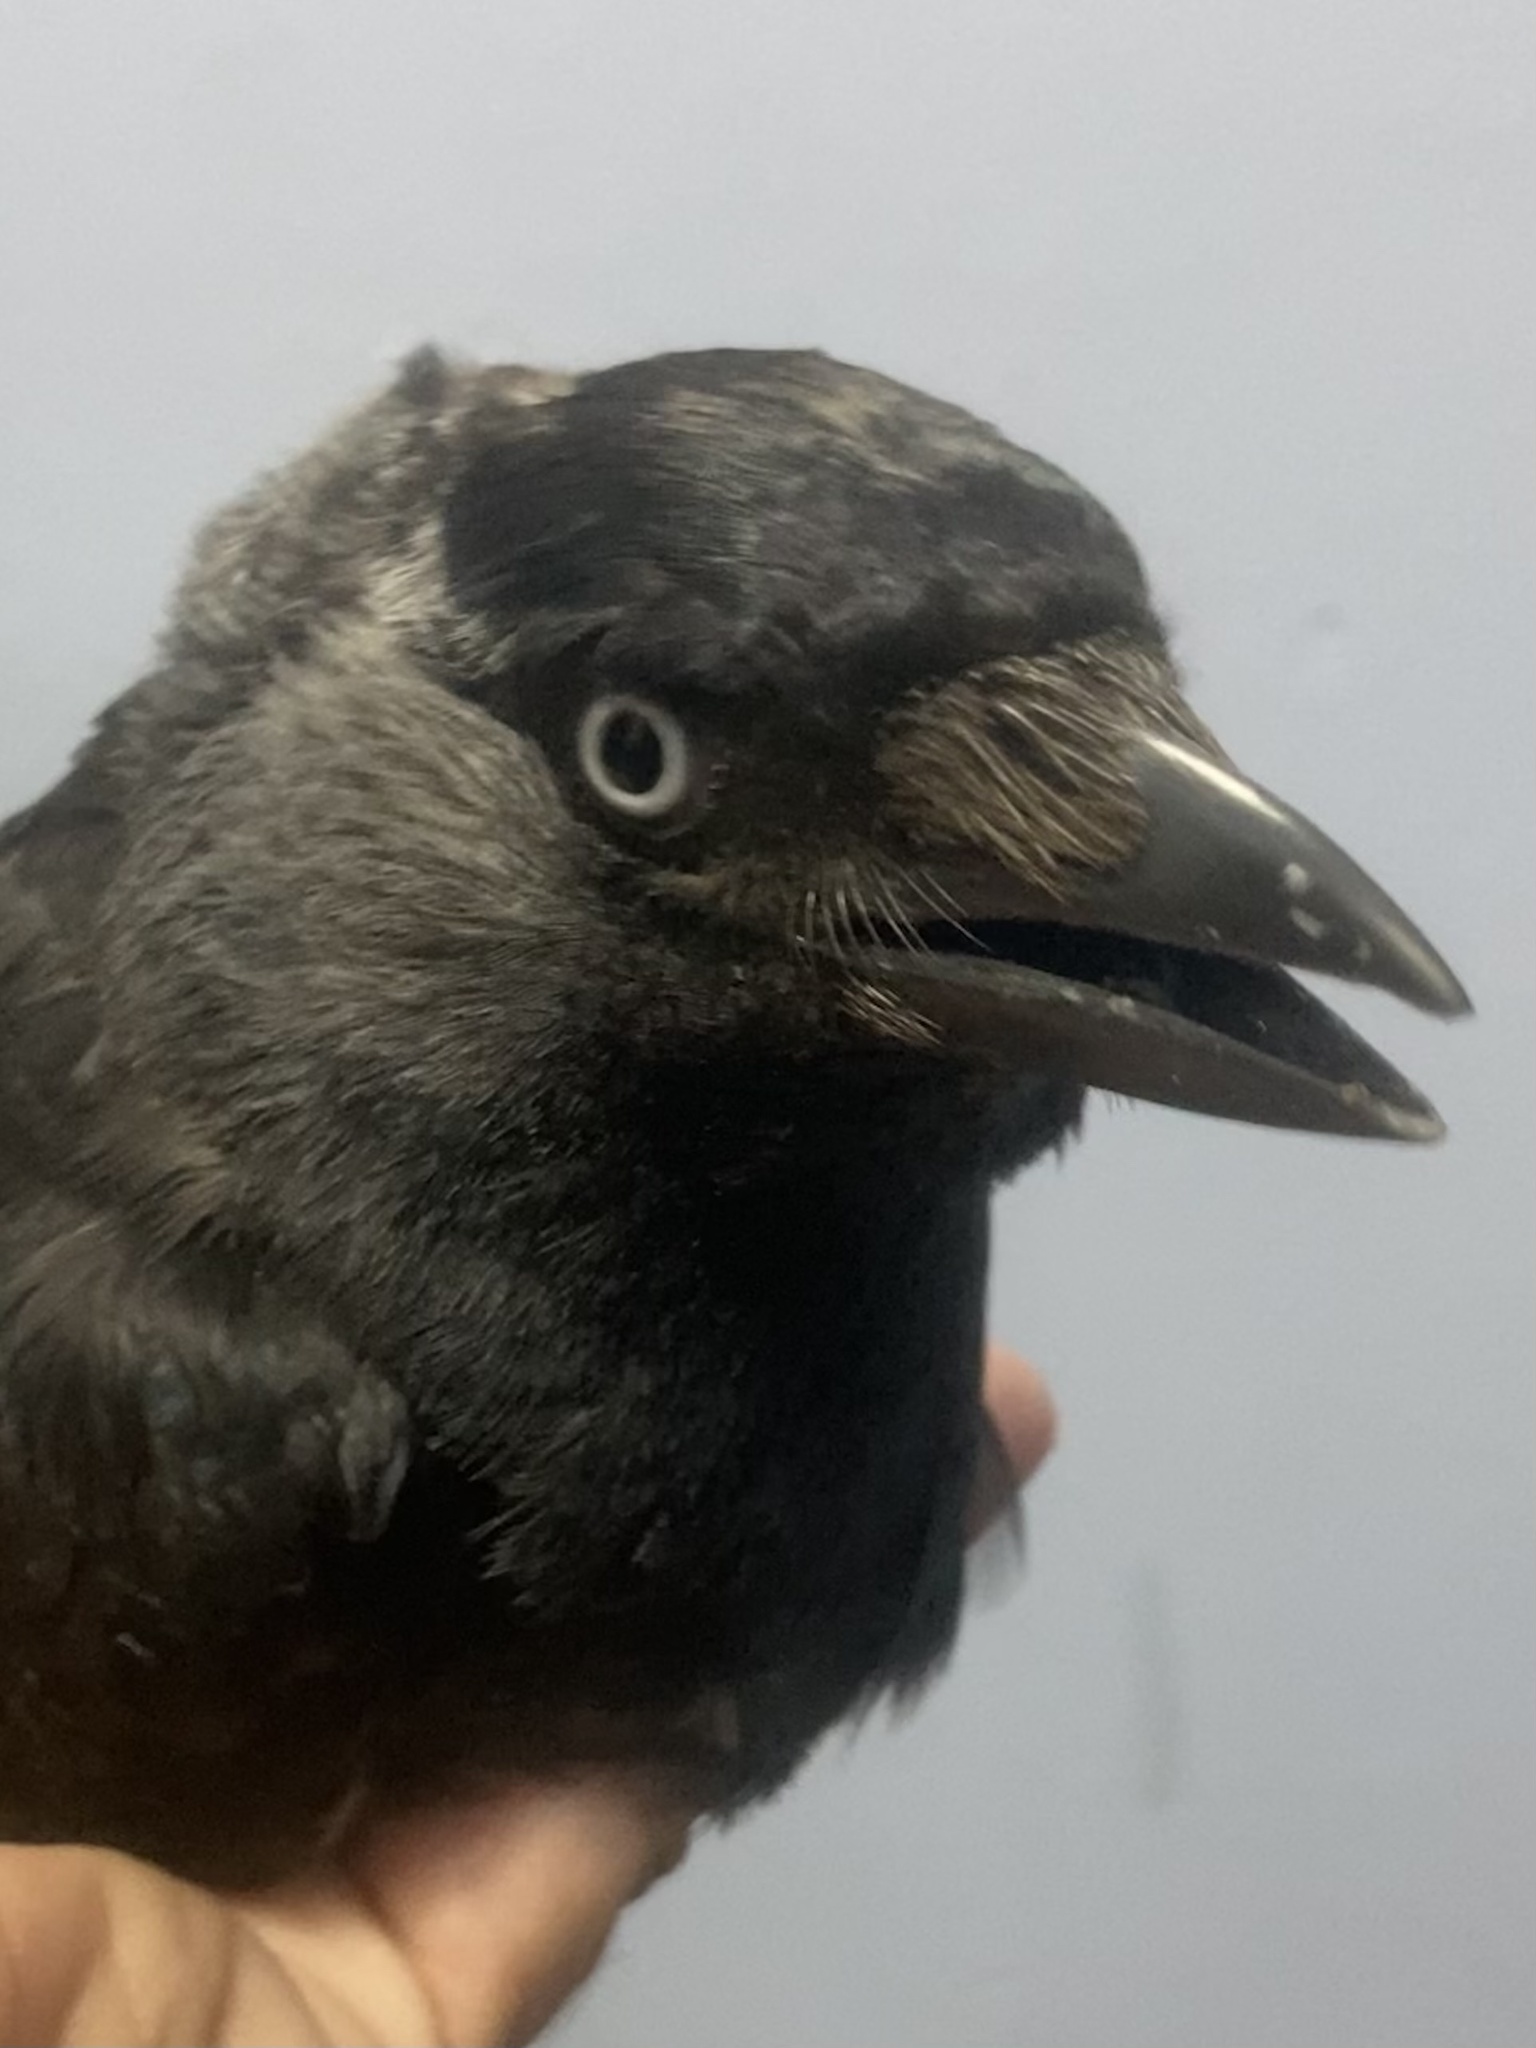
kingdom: Animalia
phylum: Chordata
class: Aves
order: Passeriformes
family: Corvidae
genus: Coloeus
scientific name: Coloeus monedula
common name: Western jackdaw
